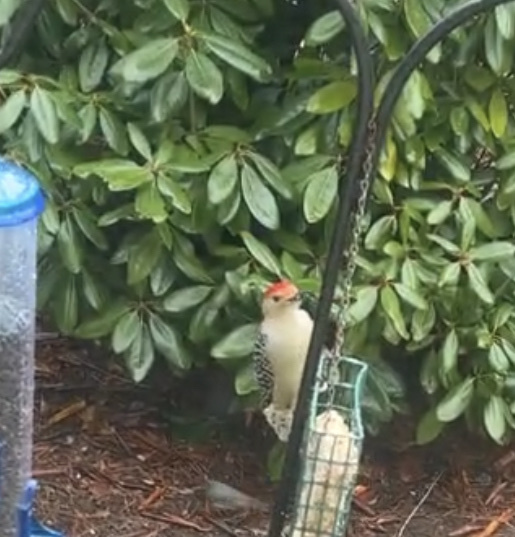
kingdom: Animalia
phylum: Chordata
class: Aves
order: Piciformes
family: Picidae
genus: Melanerpes
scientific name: Melanerpes carolinus
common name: Red-bellied woodpecker
